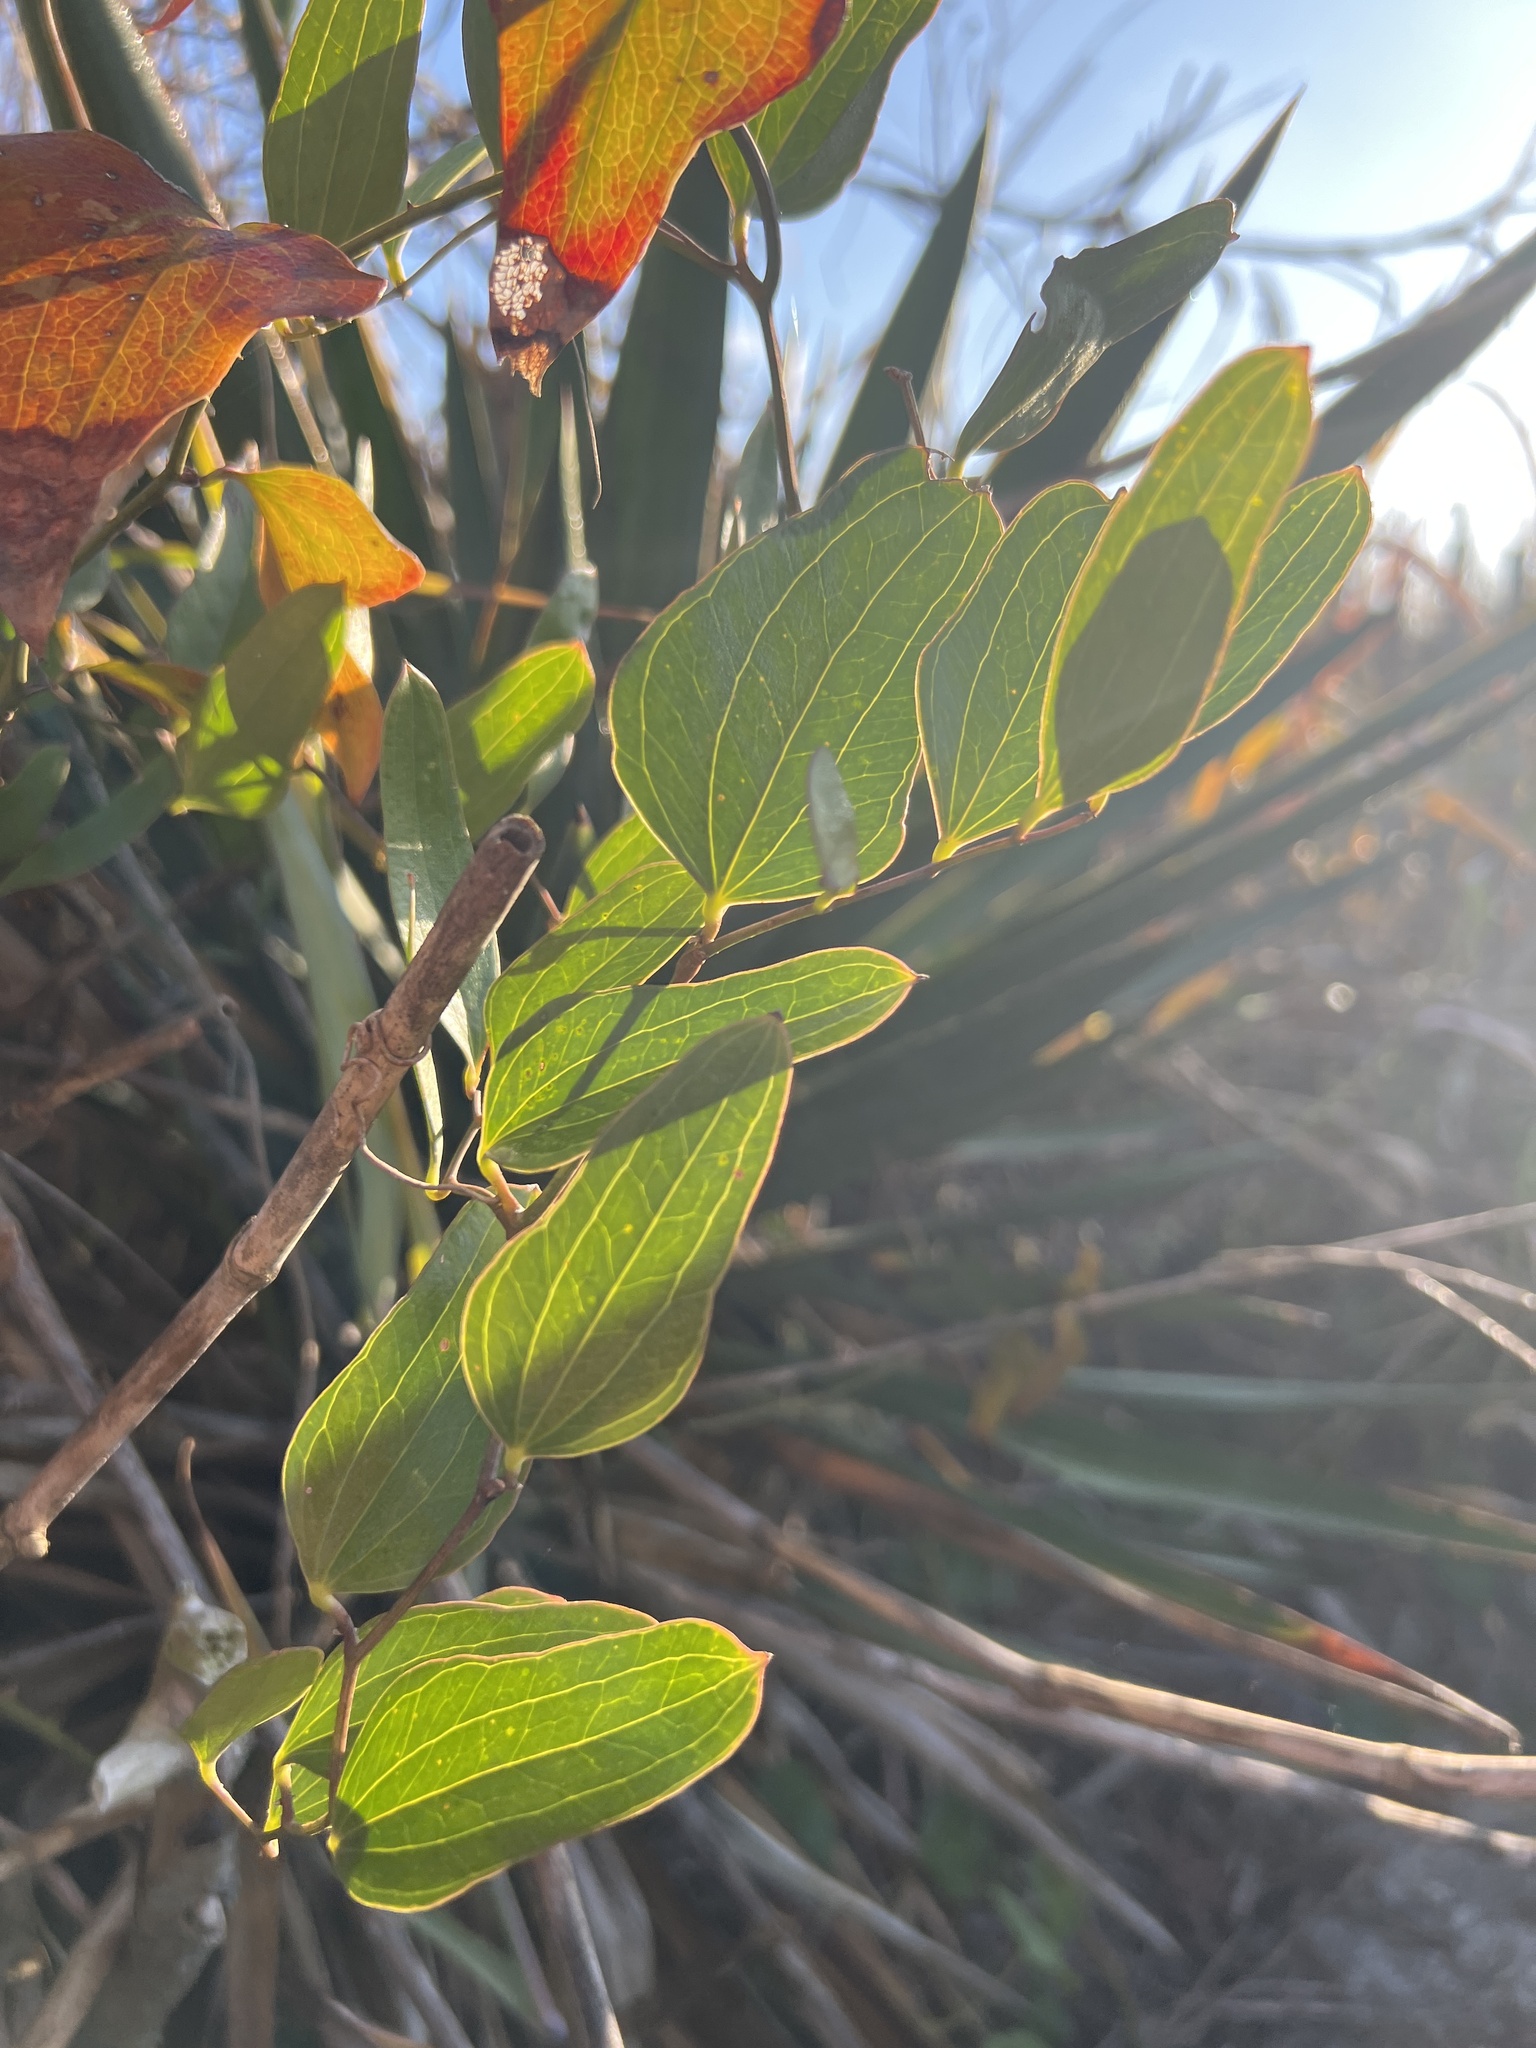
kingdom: Plantae
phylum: Tracheophyta
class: Liliopsida
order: Liliales
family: Smilacaceae
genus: Smilax
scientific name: Smilax auriculata
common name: Wild bamboo
